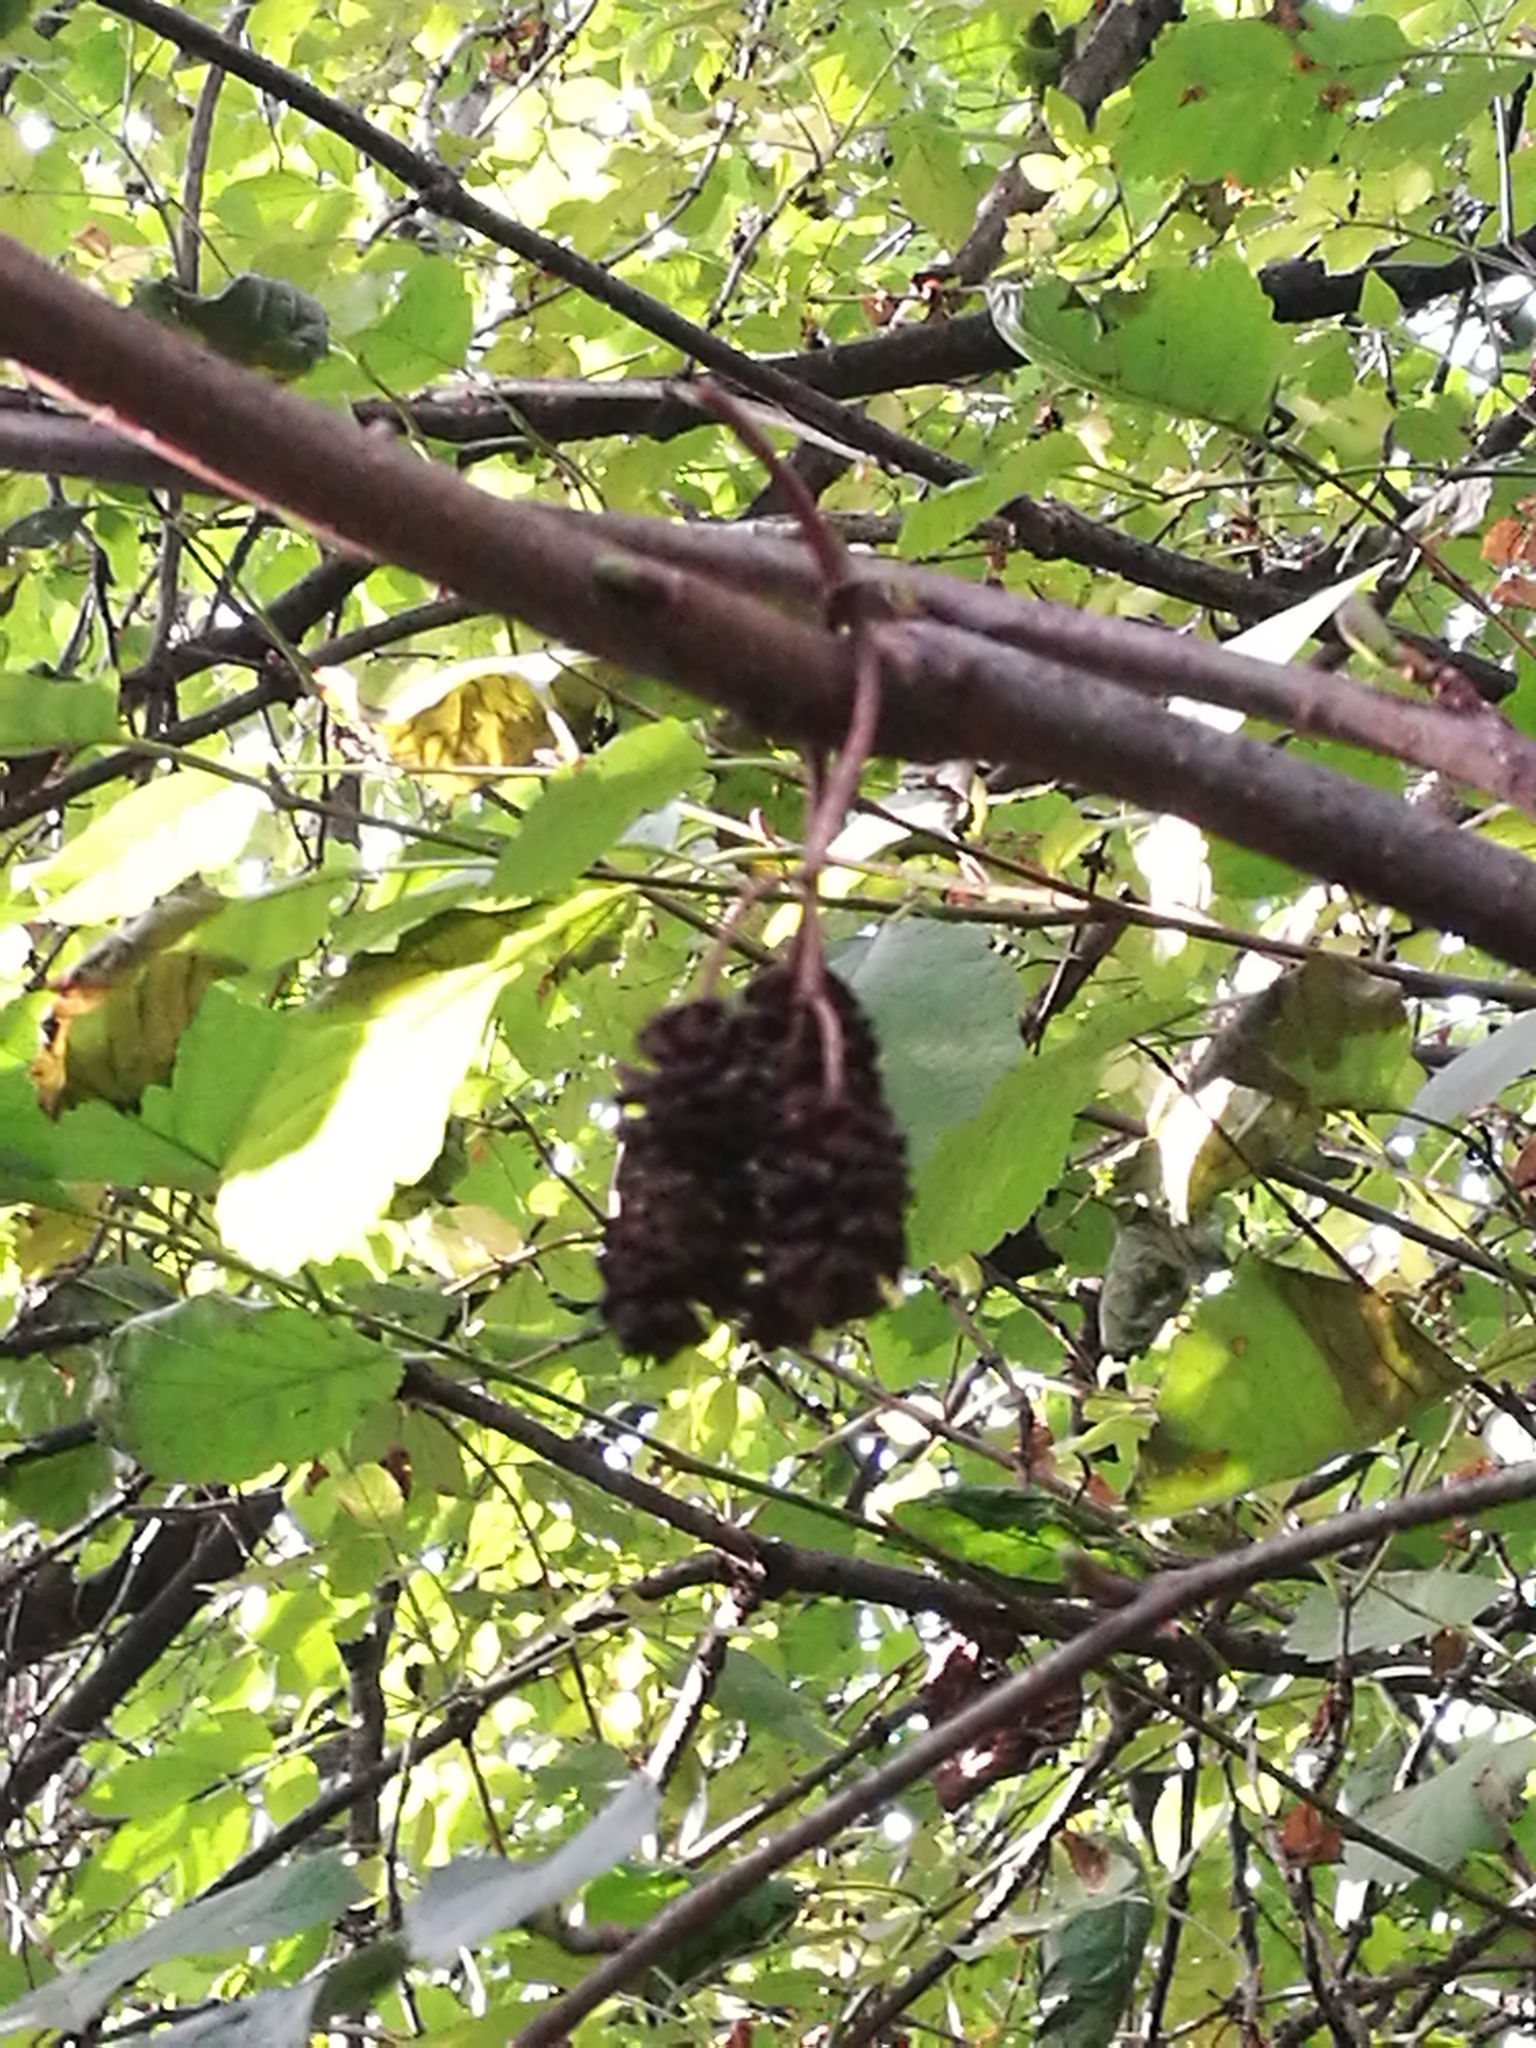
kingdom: Plantae
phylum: Tracheophyta
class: Magnoliopsida
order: Fagales
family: Betulaceae
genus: Alnus
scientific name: Alnus glutinosa
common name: Black alder
